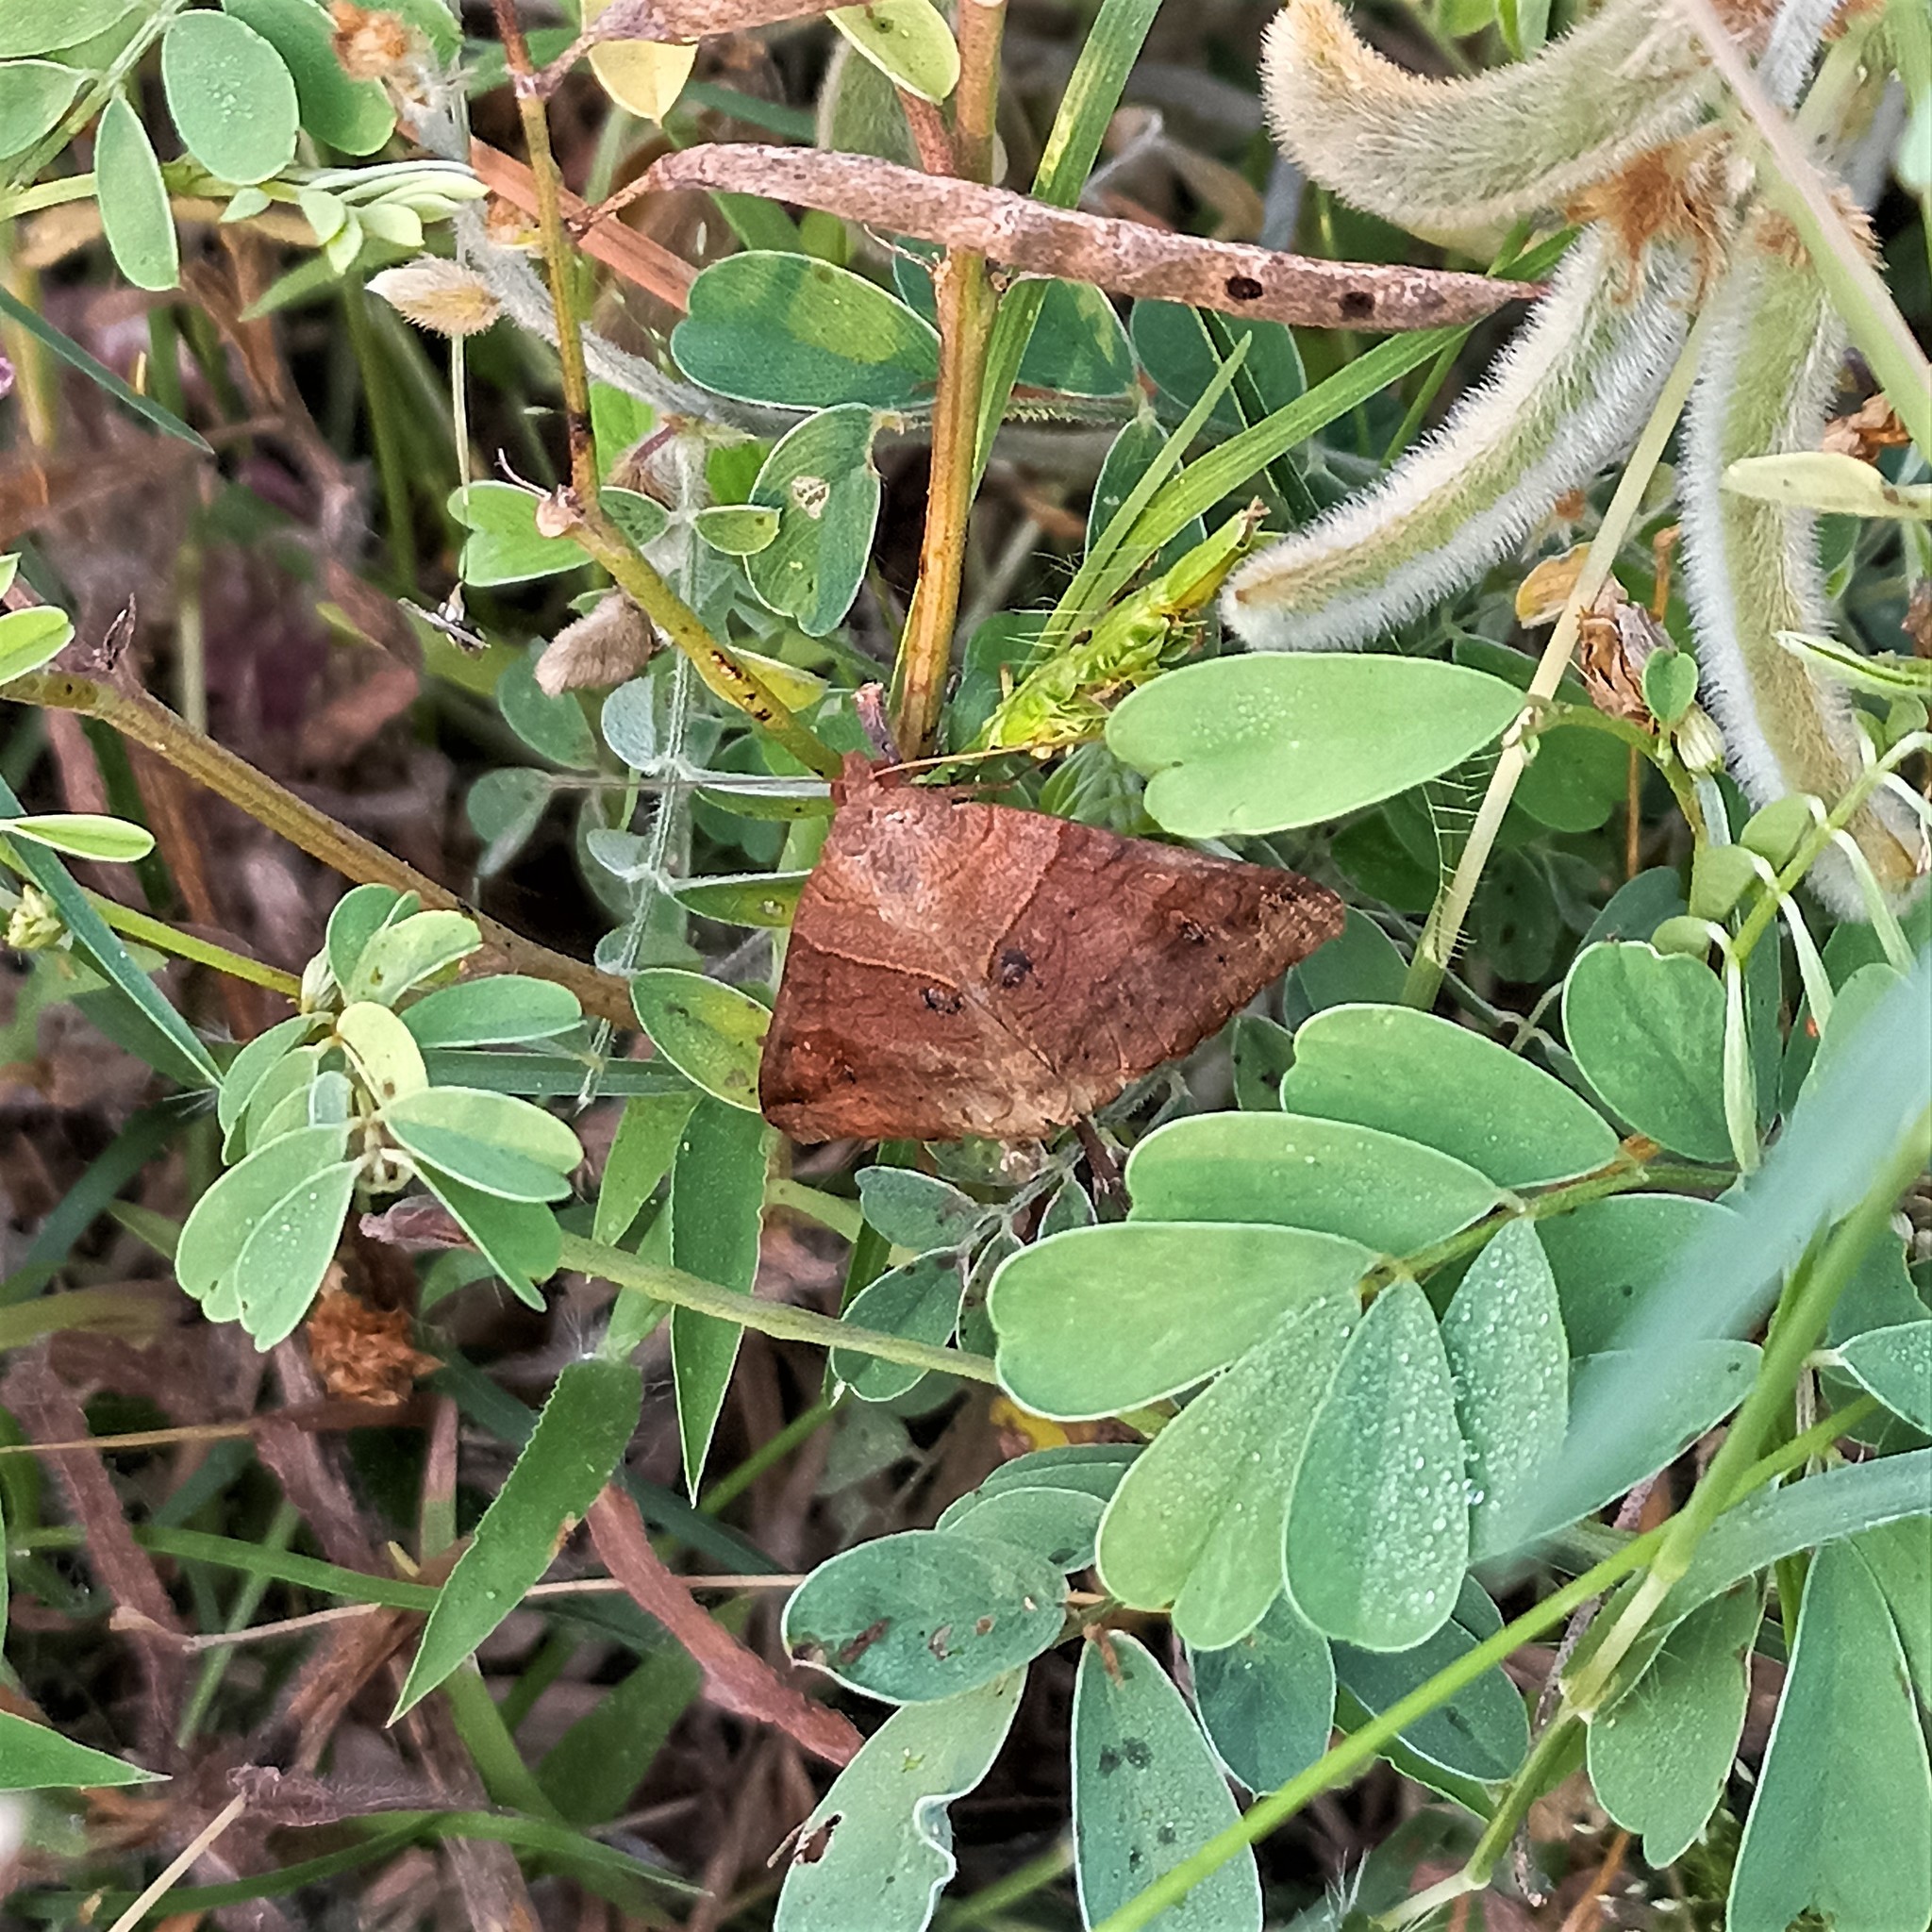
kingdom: Animalia
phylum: Arthropoda
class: Insecta
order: Lepidoptera
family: Erebidae
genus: Mocis
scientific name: Mocis undata
